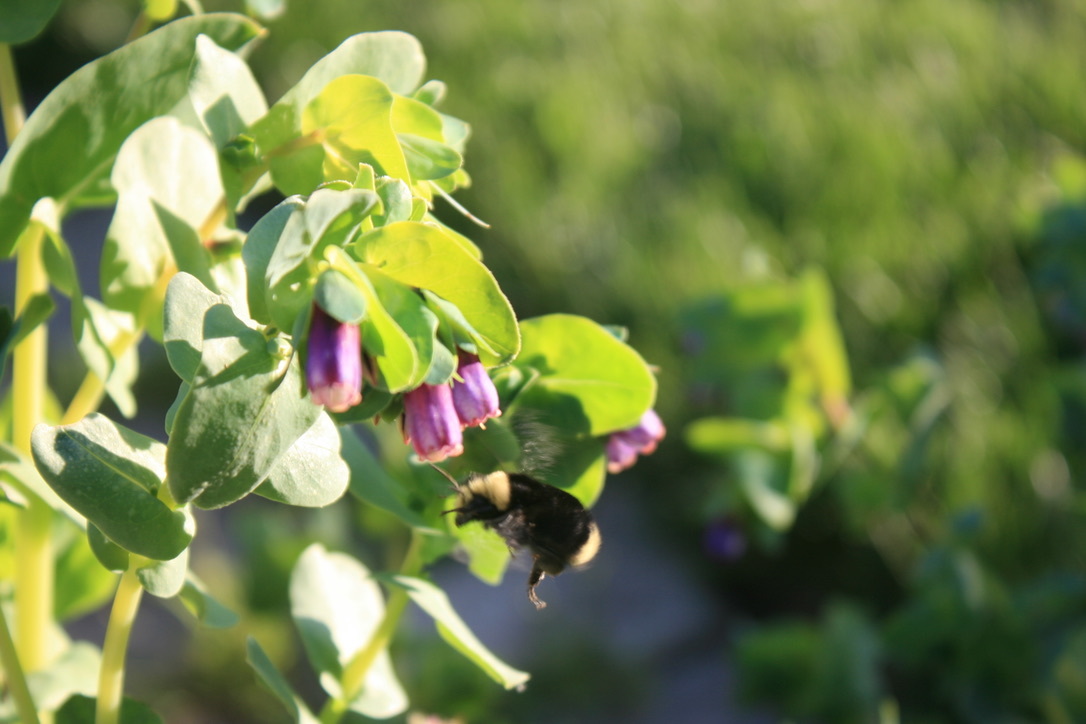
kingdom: Animalia
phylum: Arthropoda
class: Insecta
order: Hymenoptera
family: Apidae
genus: Bombus
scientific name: Bombus vosnesenskii
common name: Vosnesensky bumble bee
